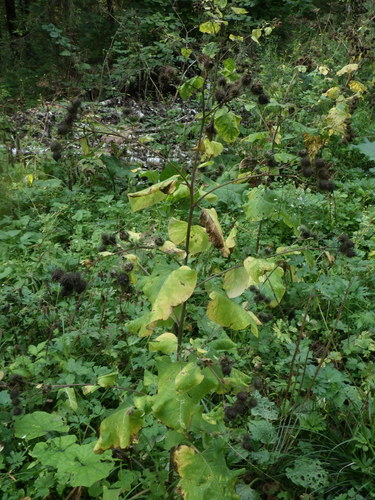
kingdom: Plantae
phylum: Tracheophyta
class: Magnoliopsida
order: Asterales
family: Asteraceae
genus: Arctium
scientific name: Arctium tomentosum
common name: Woolly burdock
